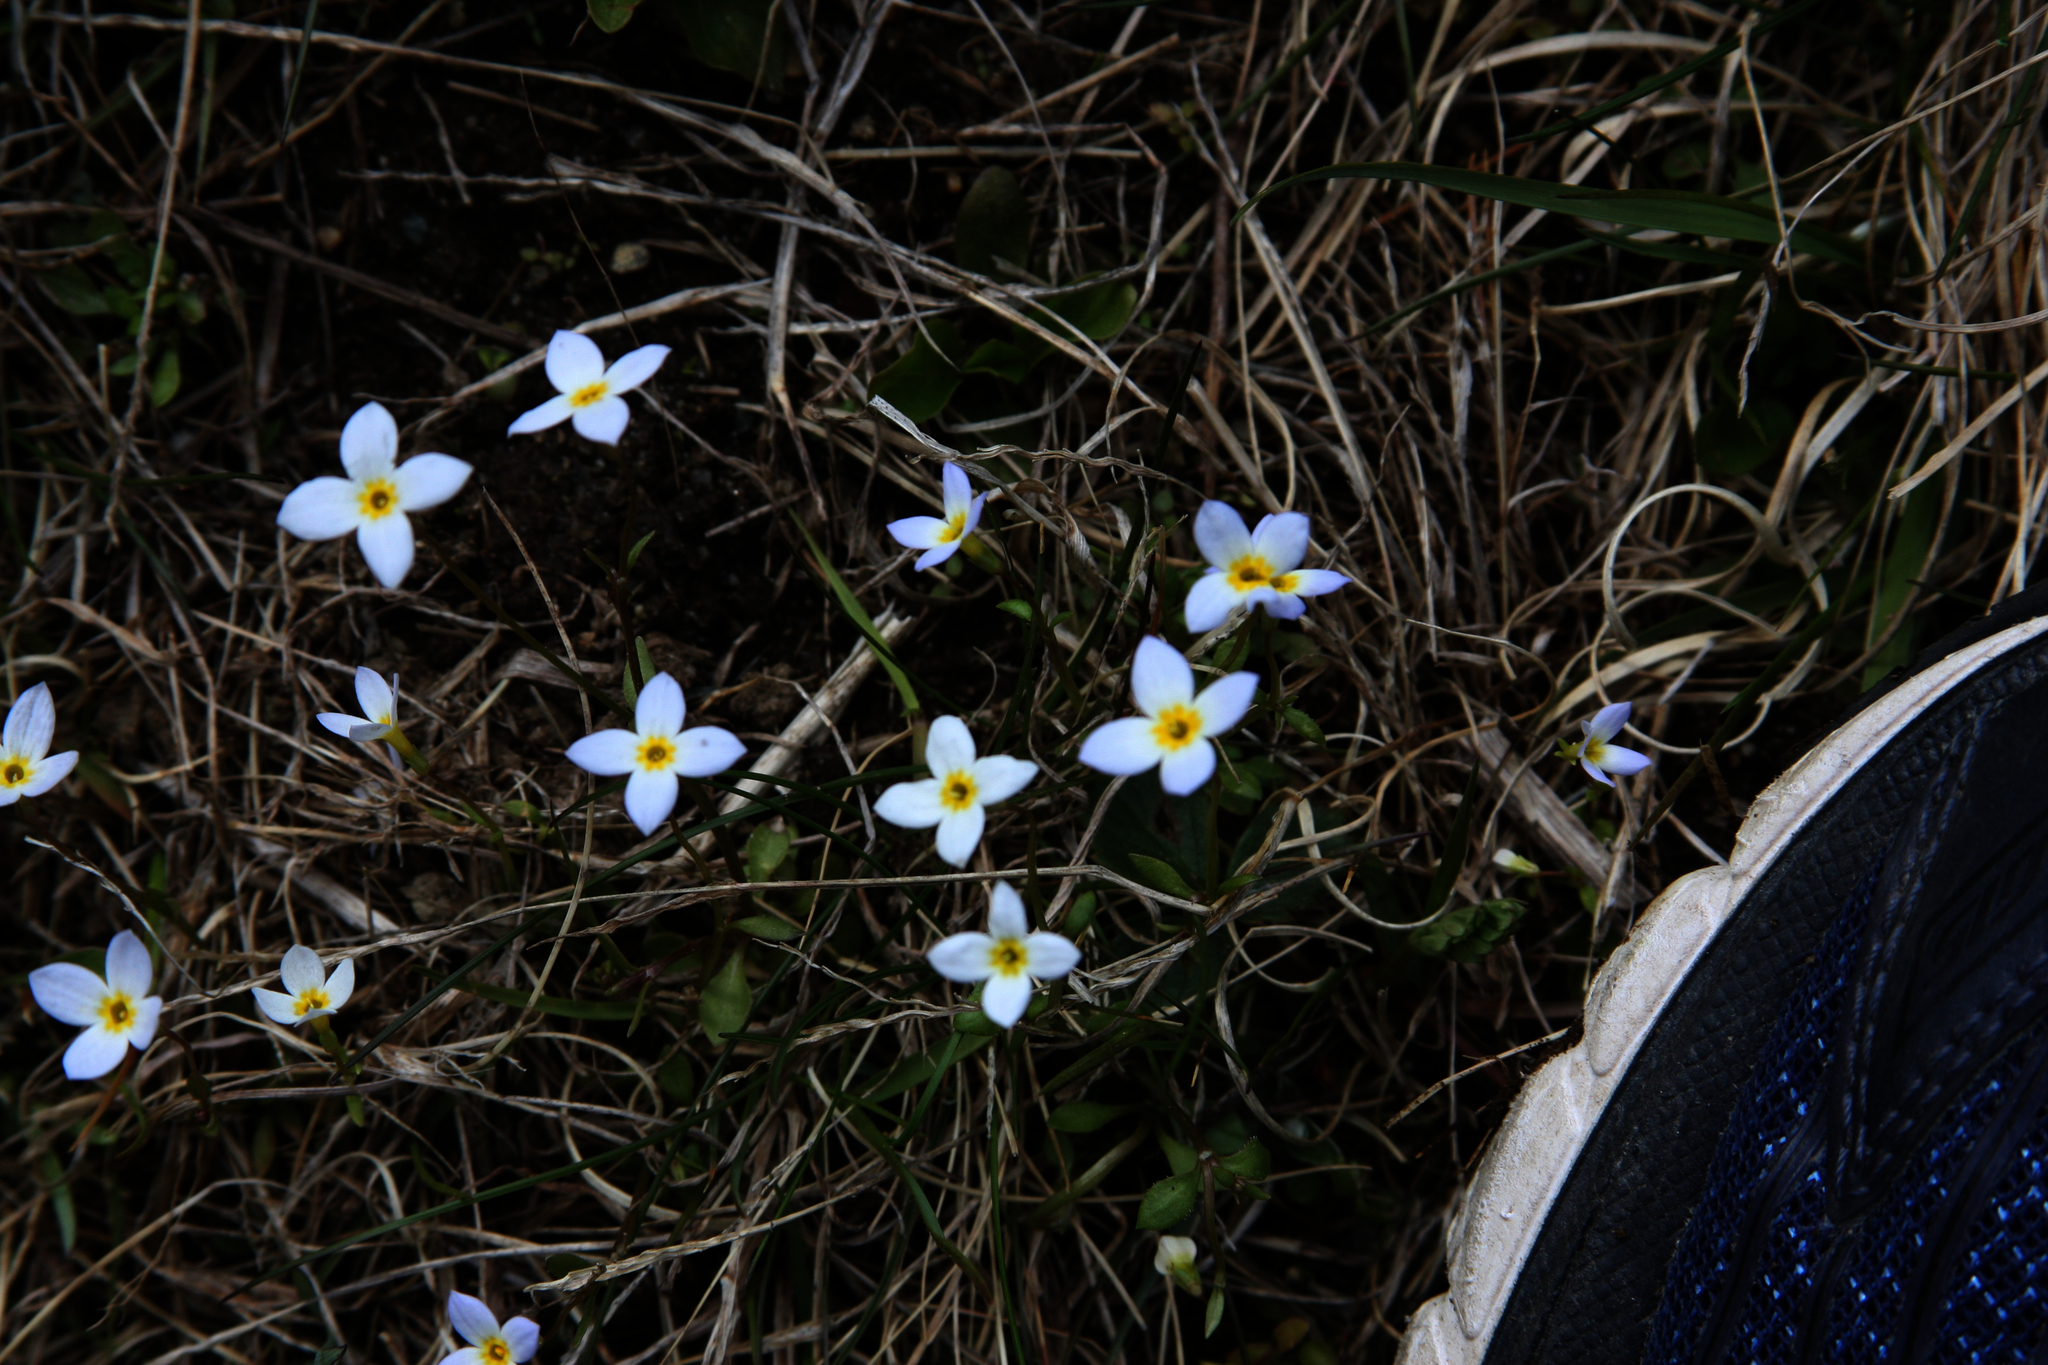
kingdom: Plantae
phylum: Tracheophyta
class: Magnoliopsida
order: Gentianales
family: Rubiaceae
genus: Houstonia
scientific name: Houstonia caerulea
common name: Bluets
